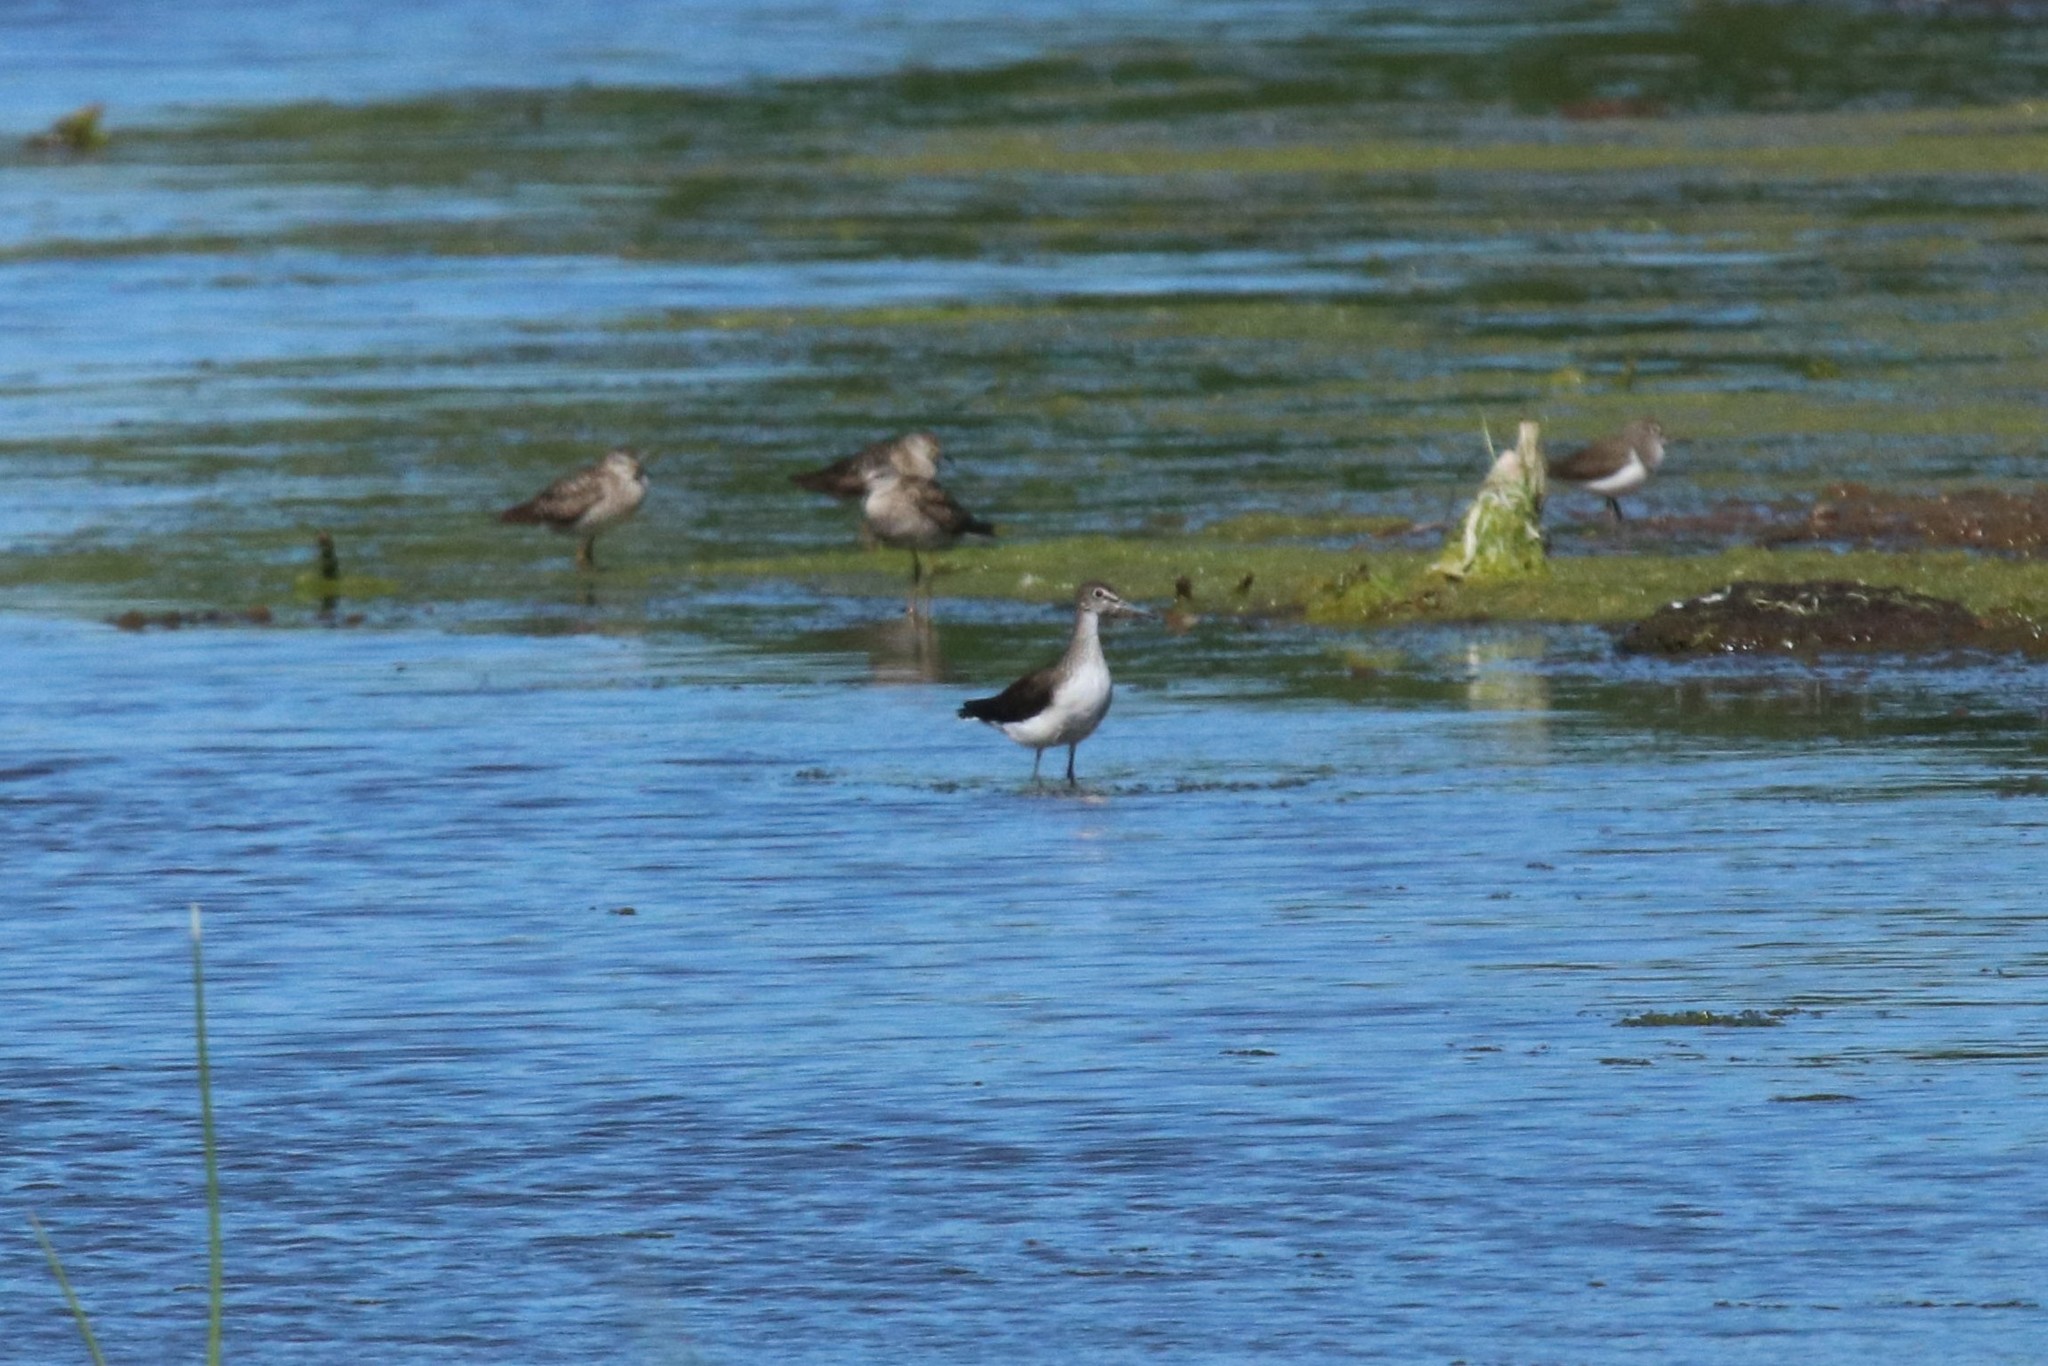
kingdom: Animalia
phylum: Chordata
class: Aves
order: Charadriiformes
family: Scolopacidae
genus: Tringa
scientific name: Tringa ochropus
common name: Green sandpiper
